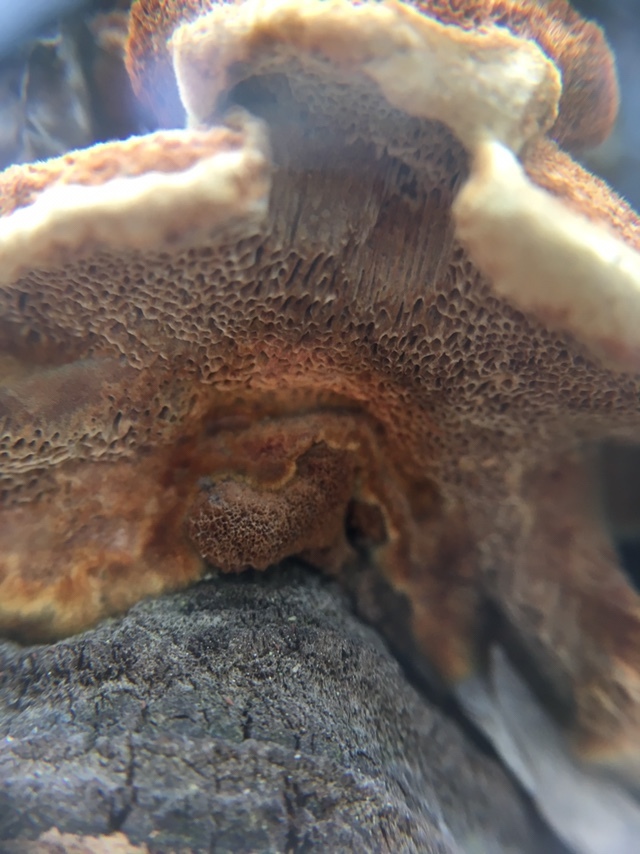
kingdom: Fungi
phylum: Basidiomycota
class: Agaricomycetes
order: Hymenochaetales
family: Hymenochaetaceae
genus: Porodaedalea
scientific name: Porodaedalea pini
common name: Pine bracket
